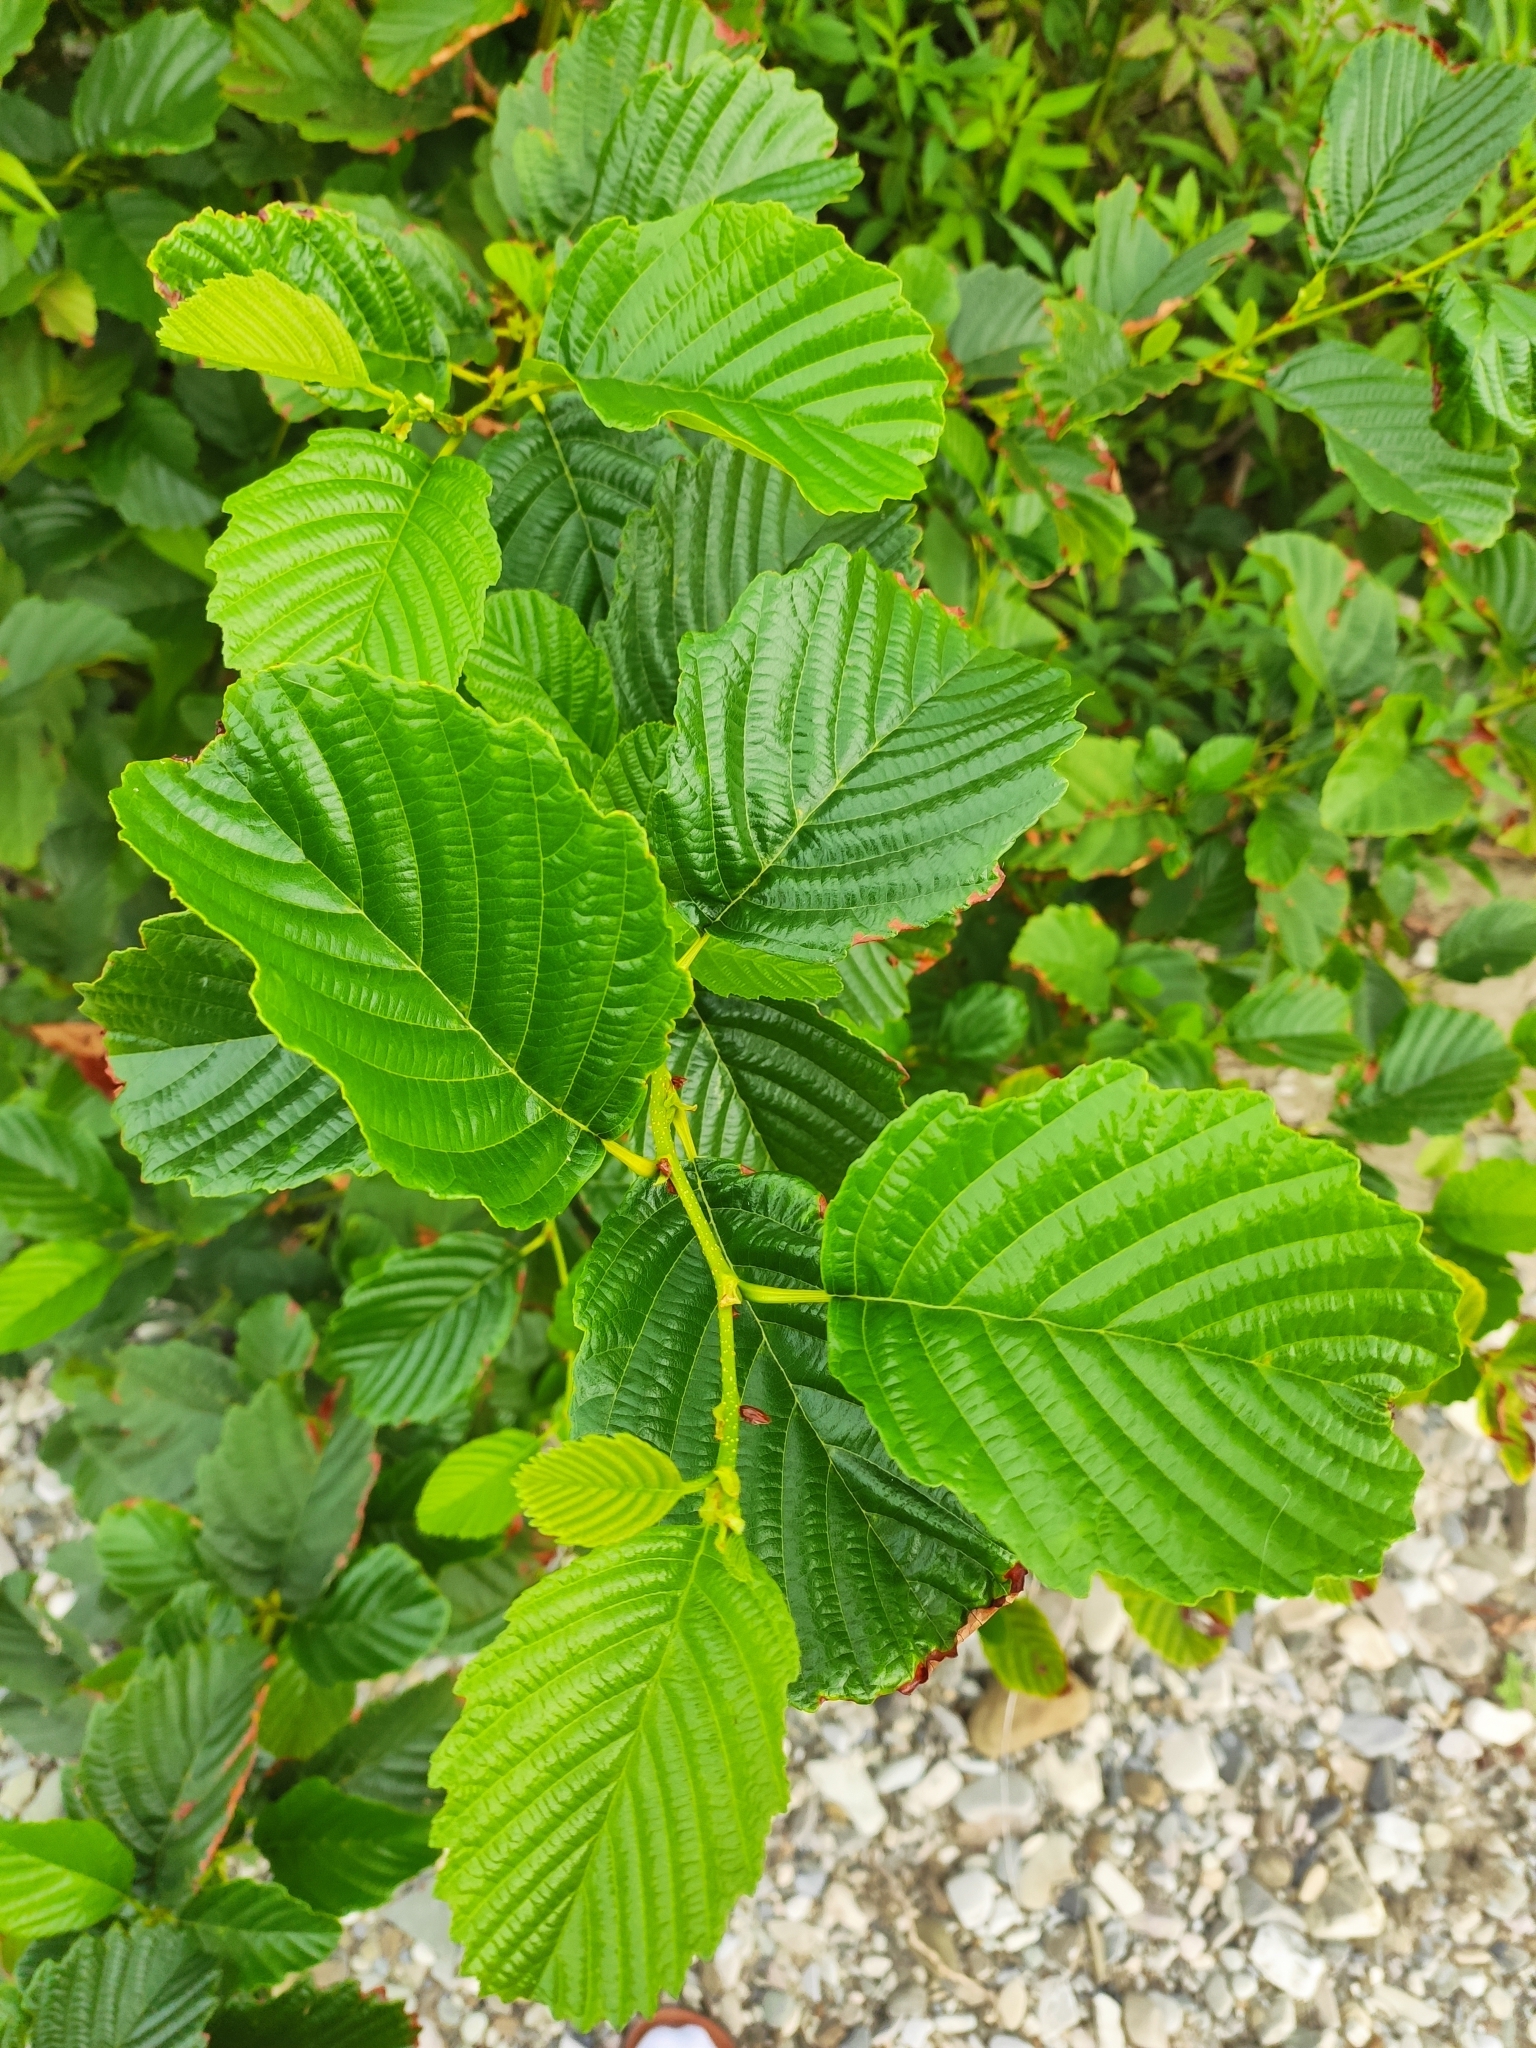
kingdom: Plantae
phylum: Tracheophyta
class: Magnoliopsida
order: Fagales
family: Betulaceae
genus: Alnus
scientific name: Alnus glutinosa
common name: Black alder
